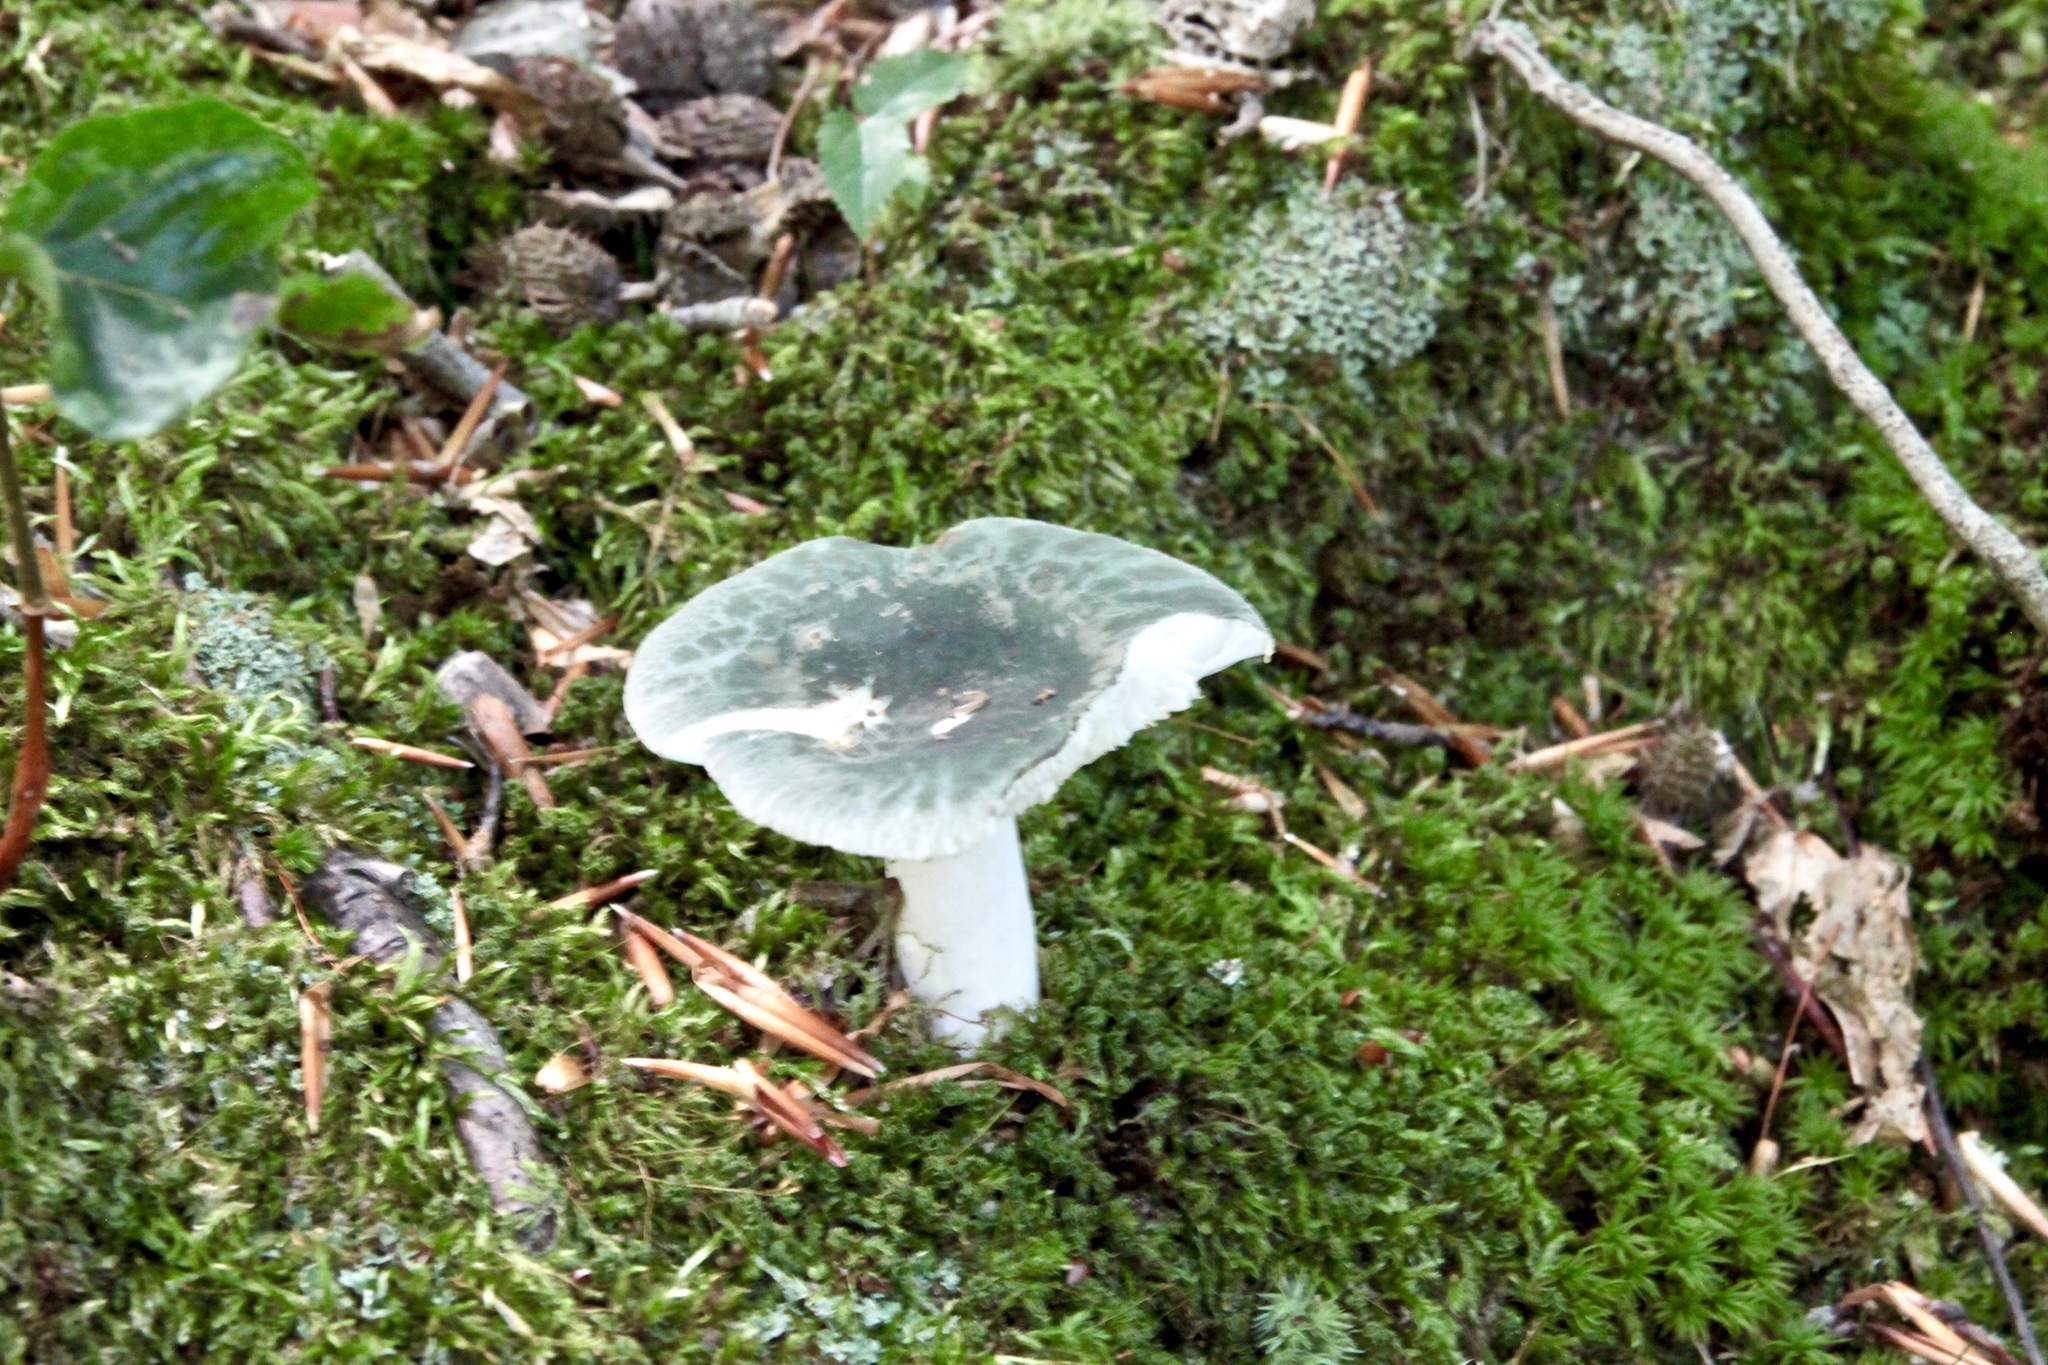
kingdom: Fungi
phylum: Basidiomycota
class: Agaricomycetes
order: Russulales
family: Russulaceae
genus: Russula
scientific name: Russula parvovirescens
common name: Blue-green cracking russula
